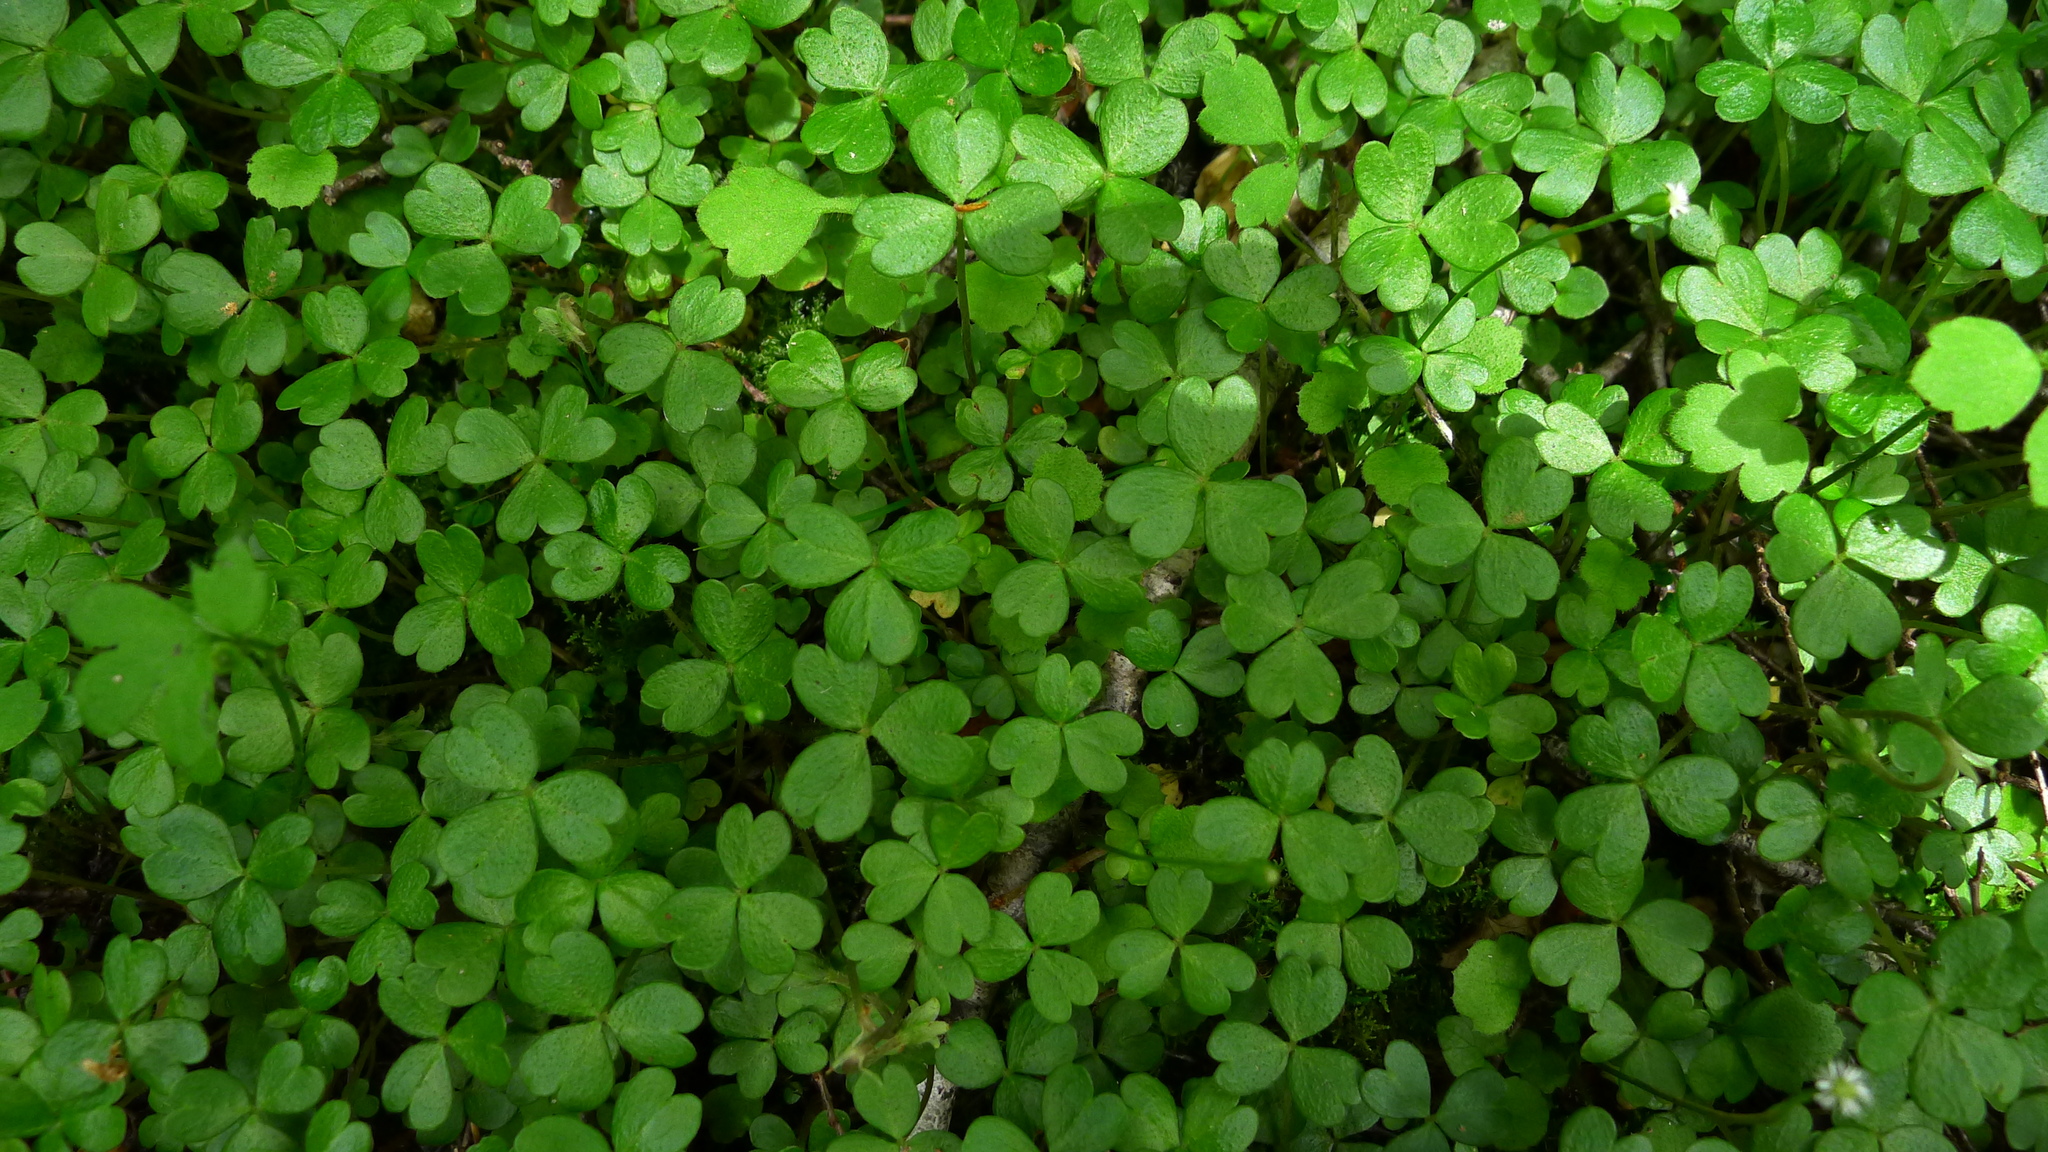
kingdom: Plantae
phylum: Tracheophyta
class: Magnoliopsida
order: Oxalidales
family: Oxalidaceae
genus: Oxalis
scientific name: Oxalis magellanica
